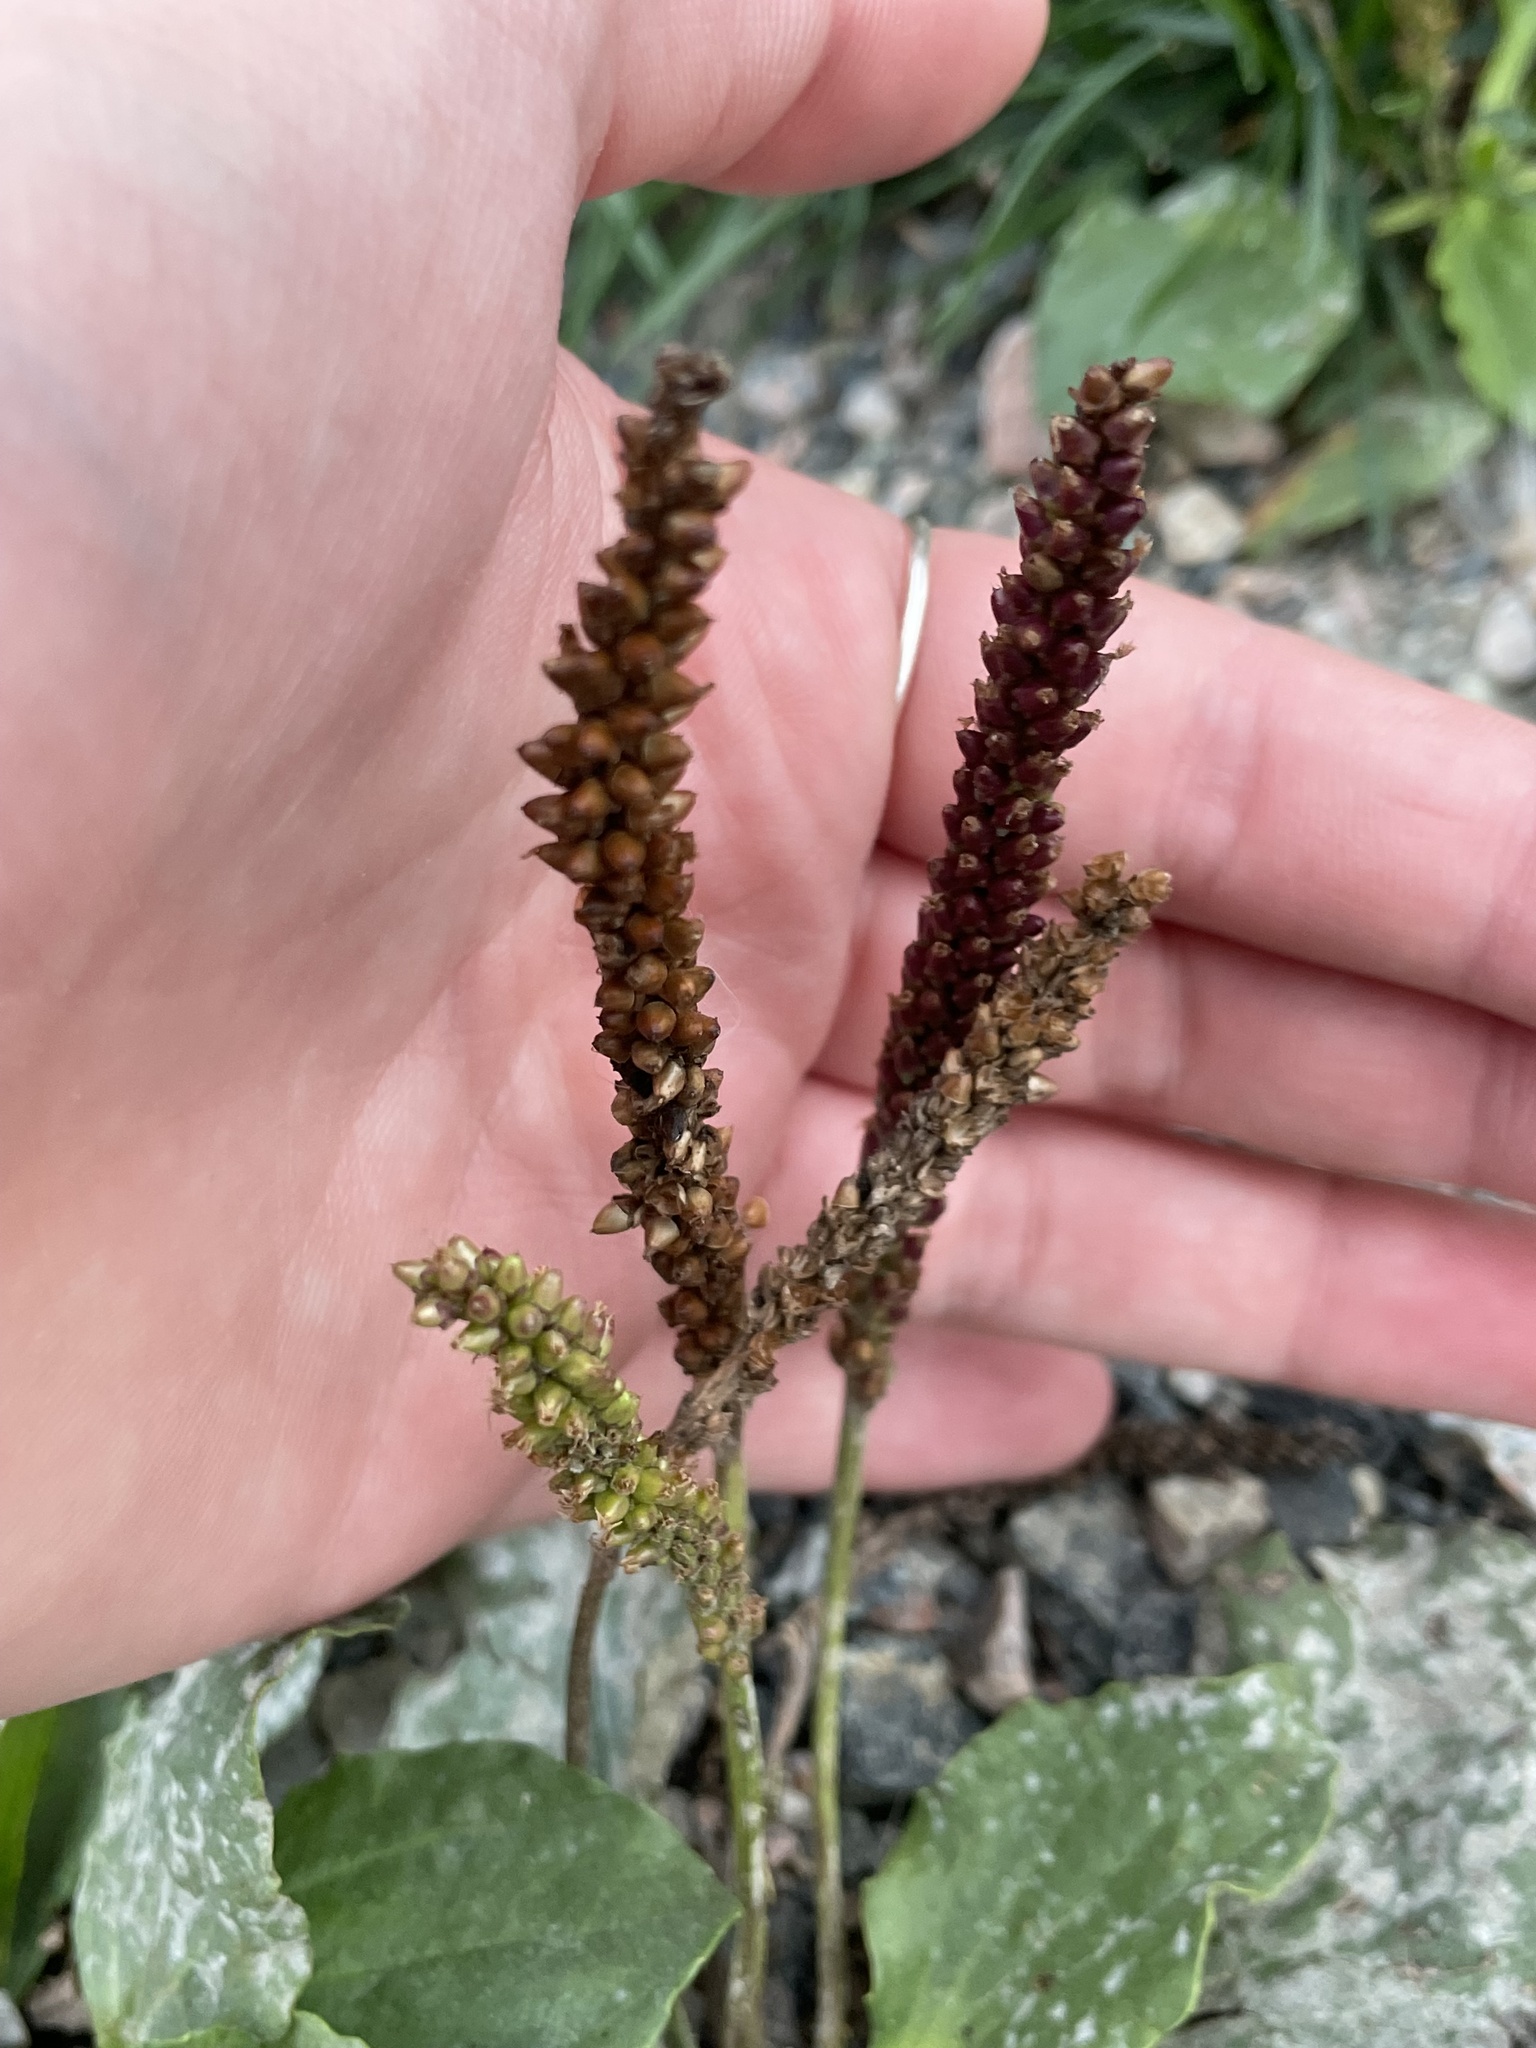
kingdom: Plantae
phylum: Tracheophyta
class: Magnoliopsida
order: Lamiales
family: Plantaginaceae
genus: Plantago
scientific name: Plantago major
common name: Common plantain
